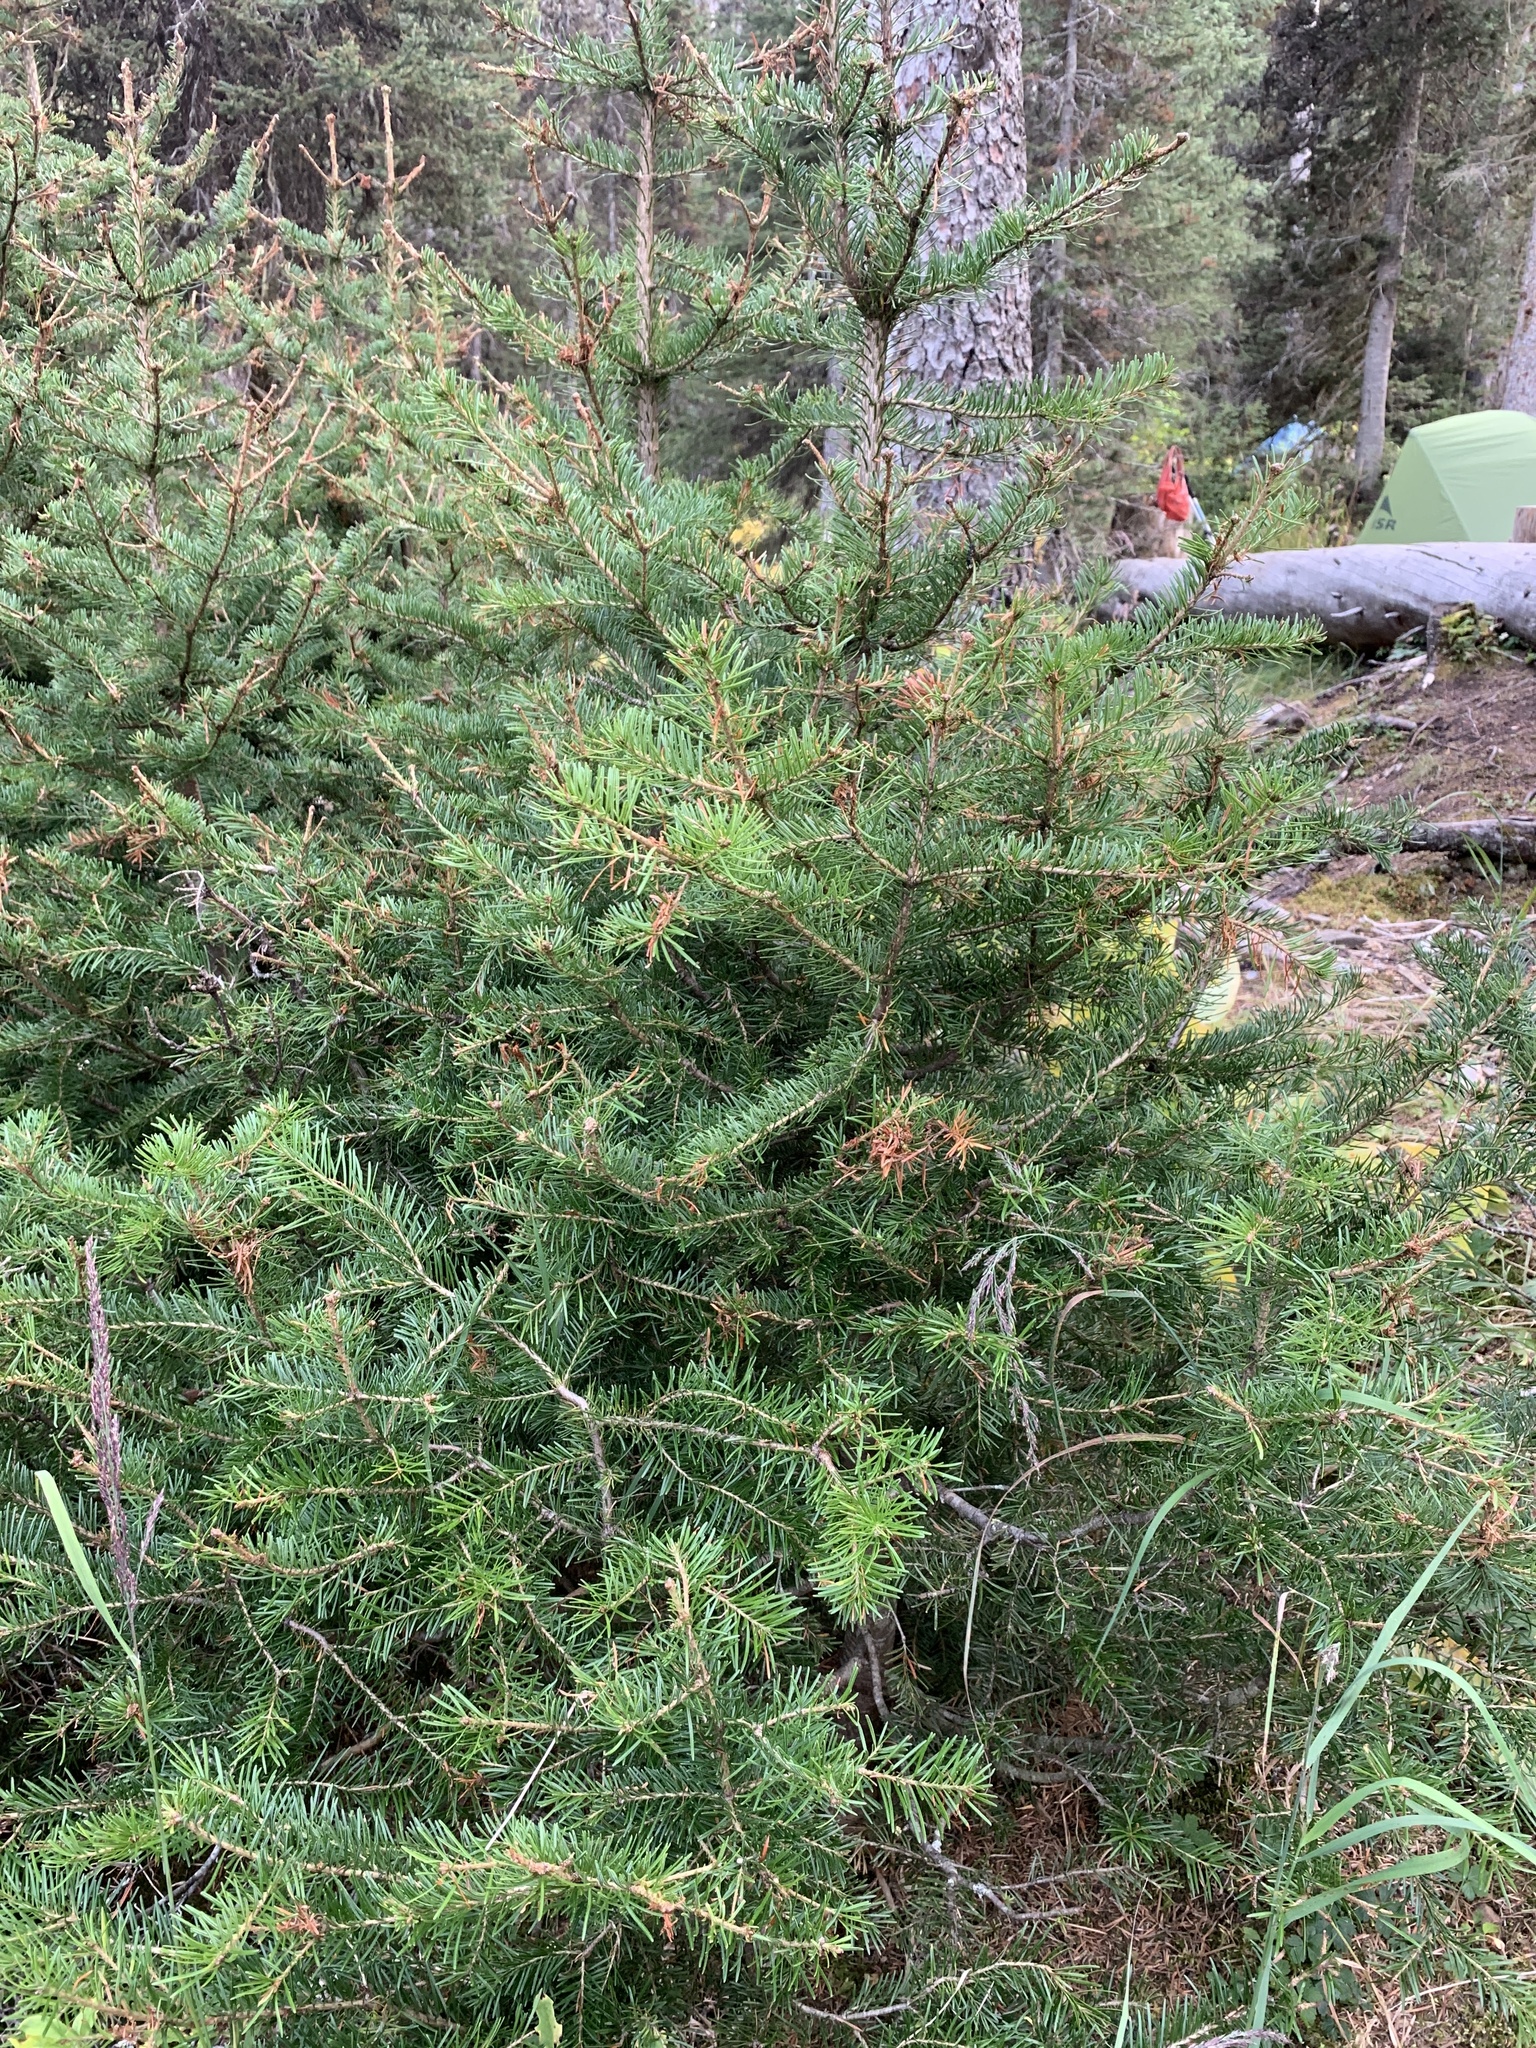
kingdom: Plantae
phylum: Tracheophyta
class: Pinopsida
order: Pinales
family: Pinaceae
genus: Abies
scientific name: Abies lasiocarpa
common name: Subalpine fir
